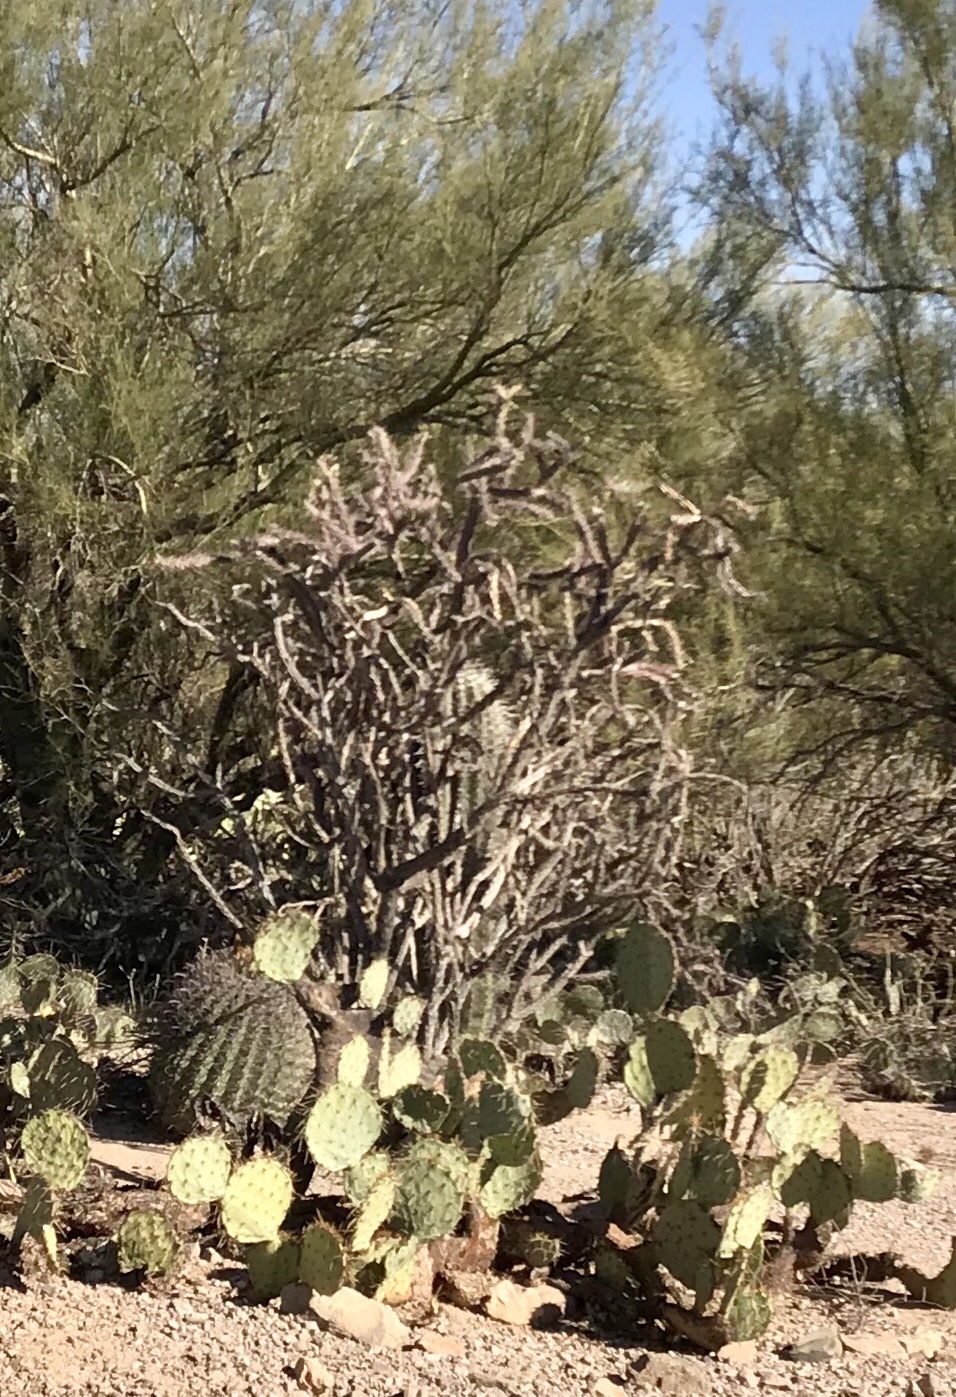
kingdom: Plantae
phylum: Tracheophyta
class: Magnoliopsida
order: Caryophyllales
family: Cactaceae
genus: Cylindropuntia
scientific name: Cylindropuntia thurberi
